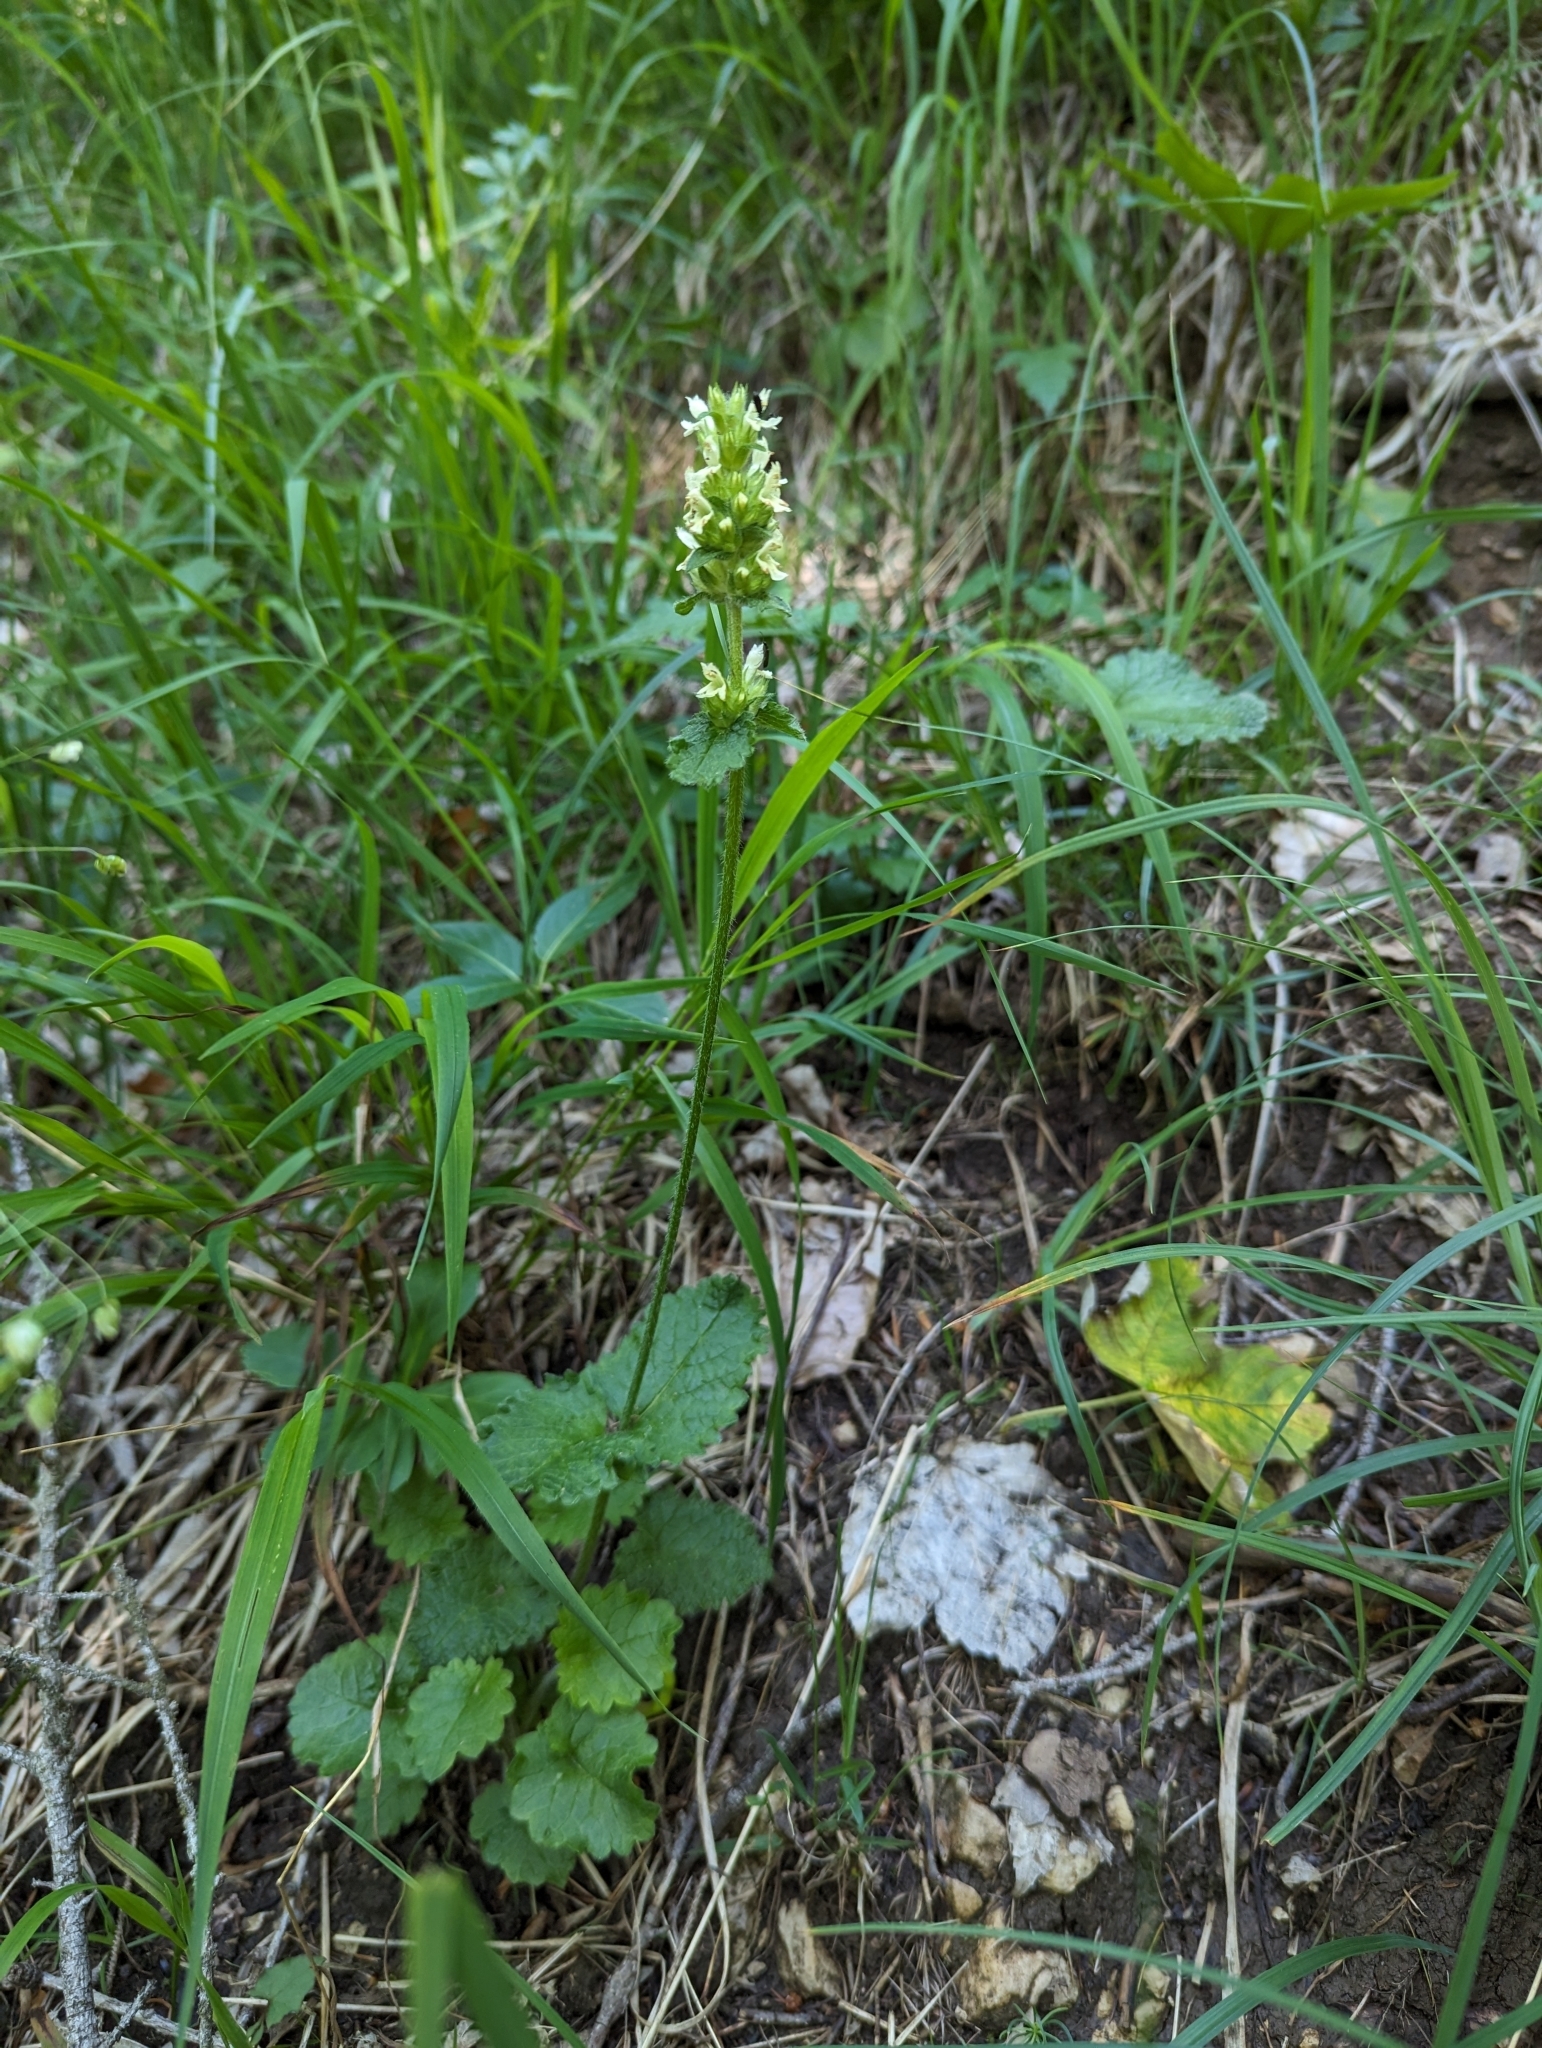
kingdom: Plantae
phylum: Tracheophyta
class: Magnoliopsida
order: Lamiales
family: Lamiaceae
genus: Betonica
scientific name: Betonica alopecuros
